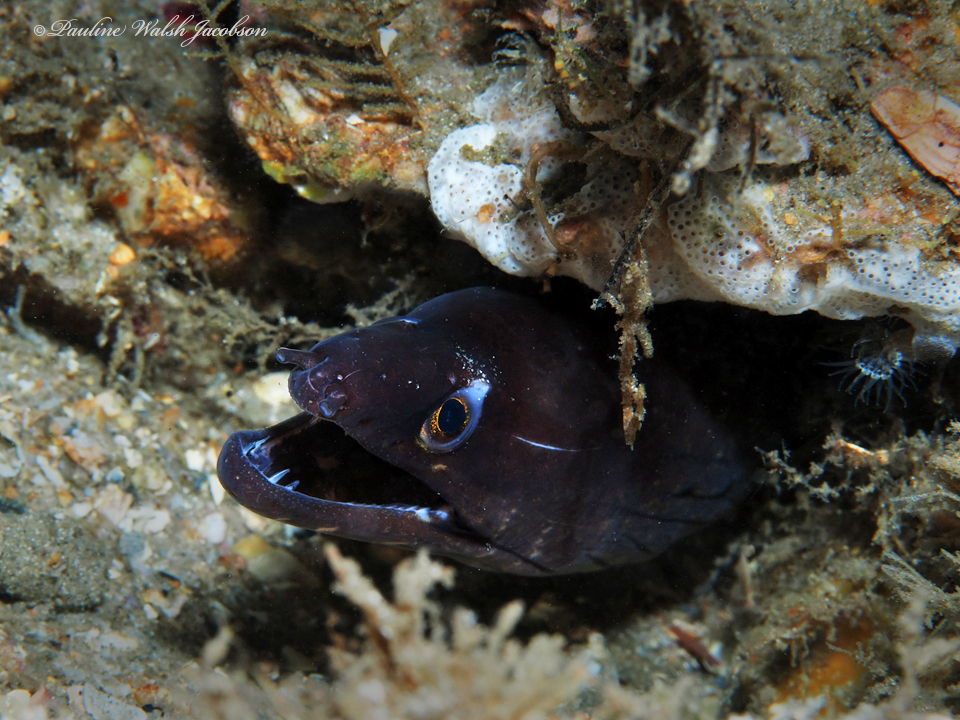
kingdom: Animalia
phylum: Chordata
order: Anguilliformes
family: Muraenidae
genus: Gymnothorax
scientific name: Gymnothorax vicinus
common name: Purplemouth moray
